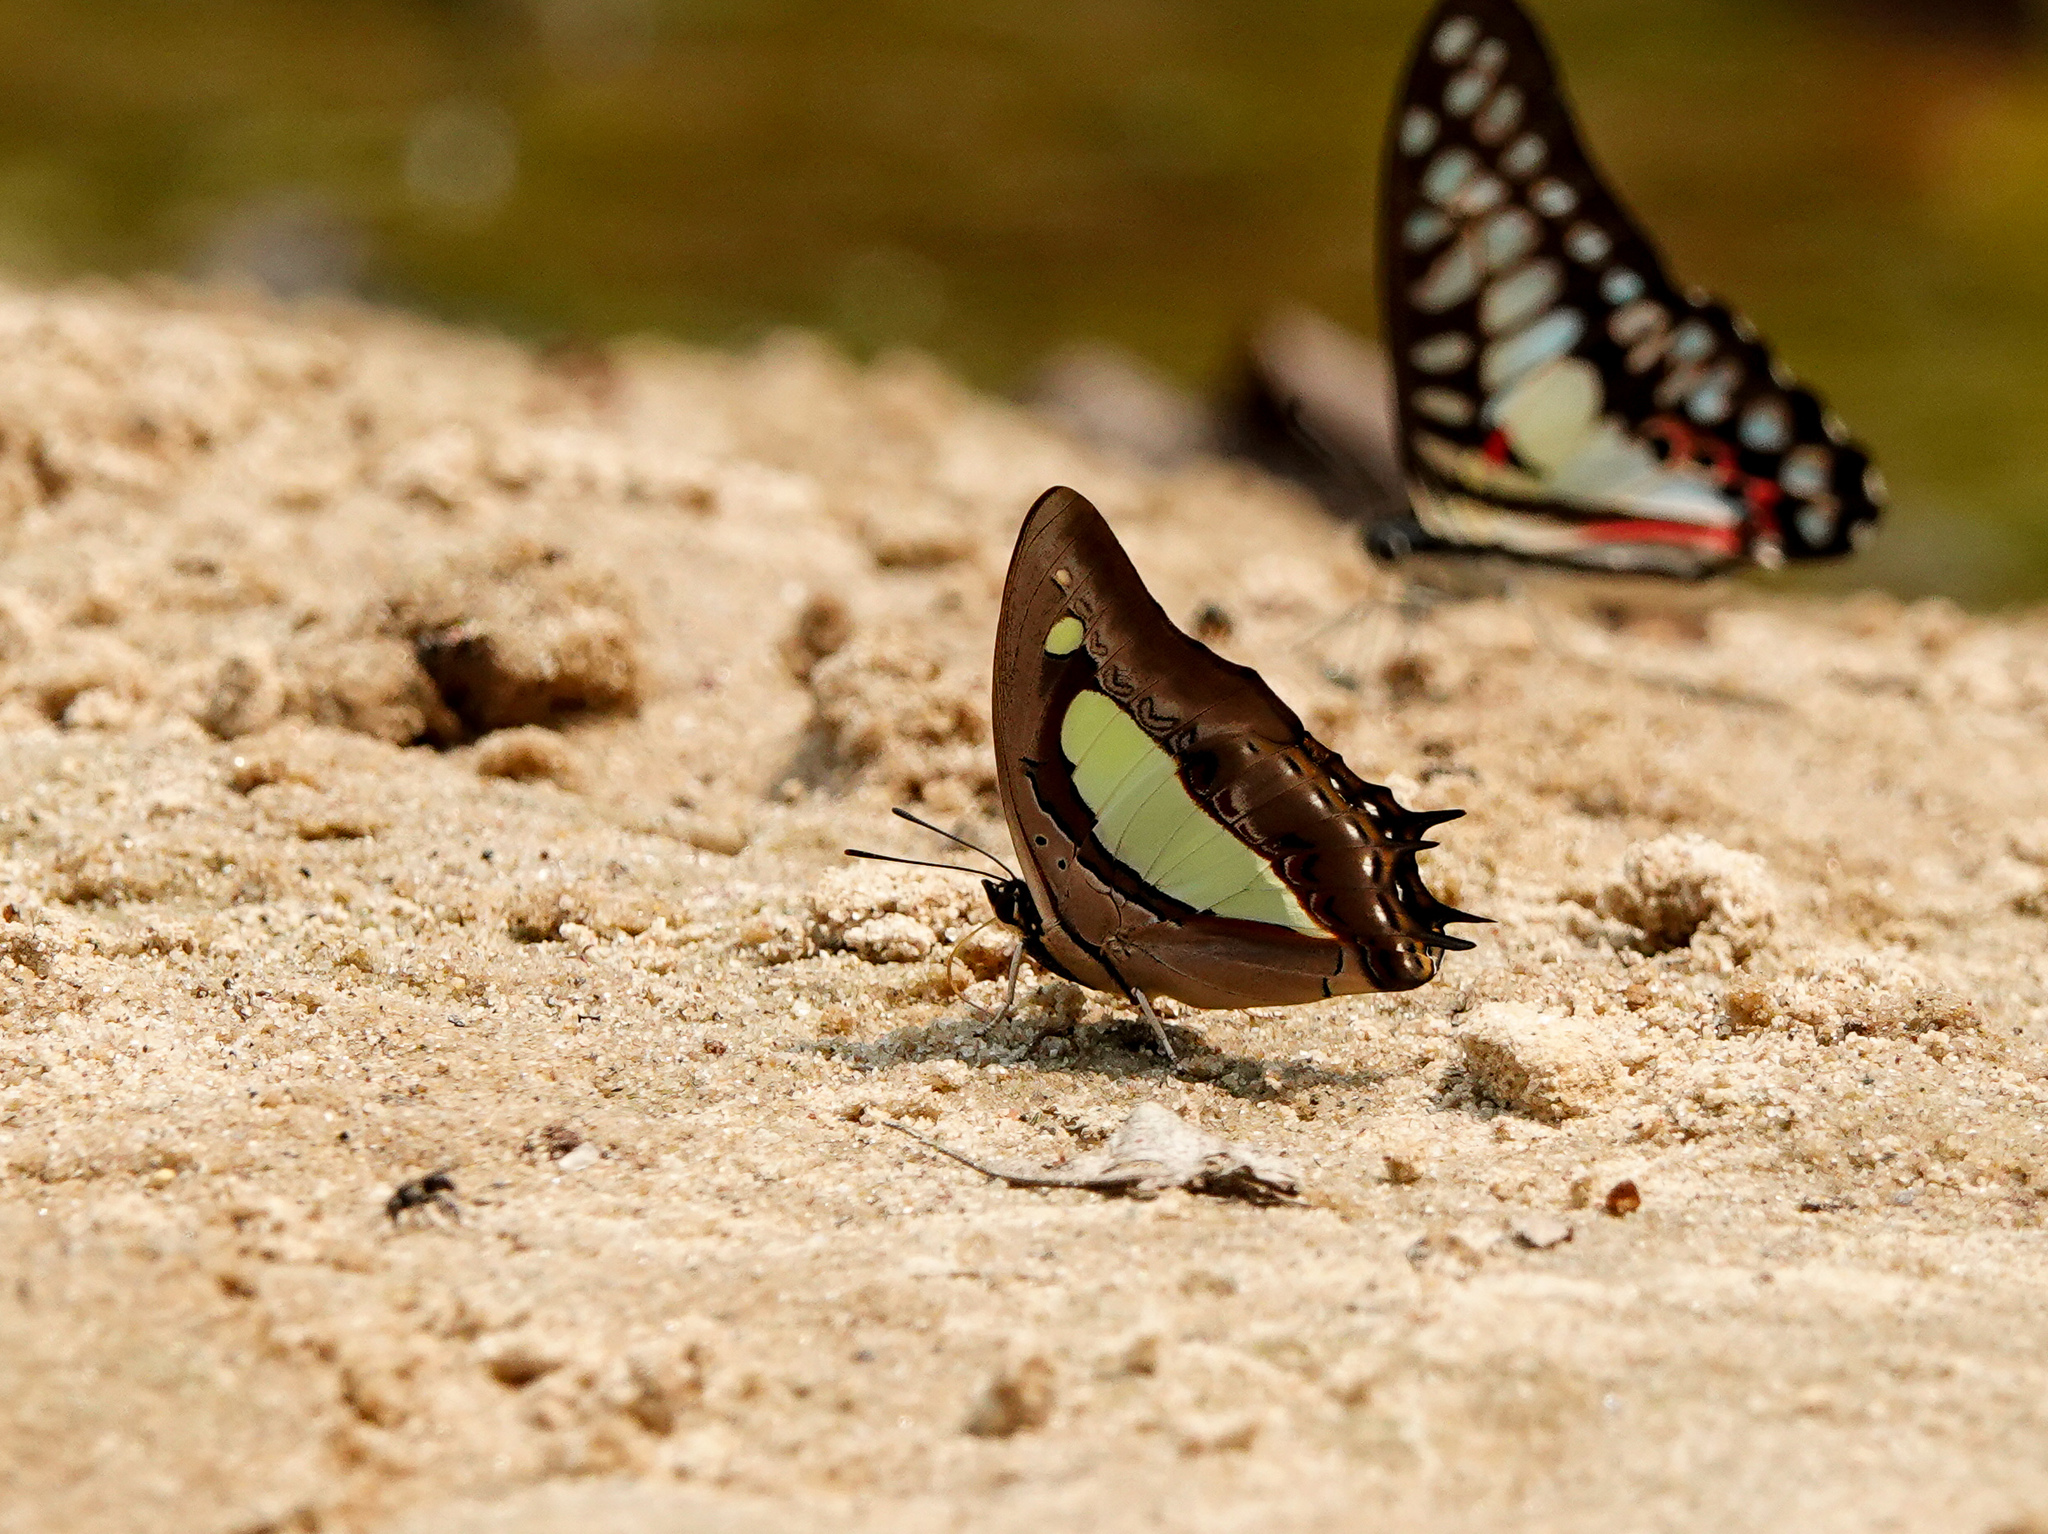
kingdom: Animalia
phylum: Arthropoda
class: Insecta
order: Lepidoptera
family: Nymphalidae
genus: Polyura
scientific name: Polyura athamas
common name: Common nawab
